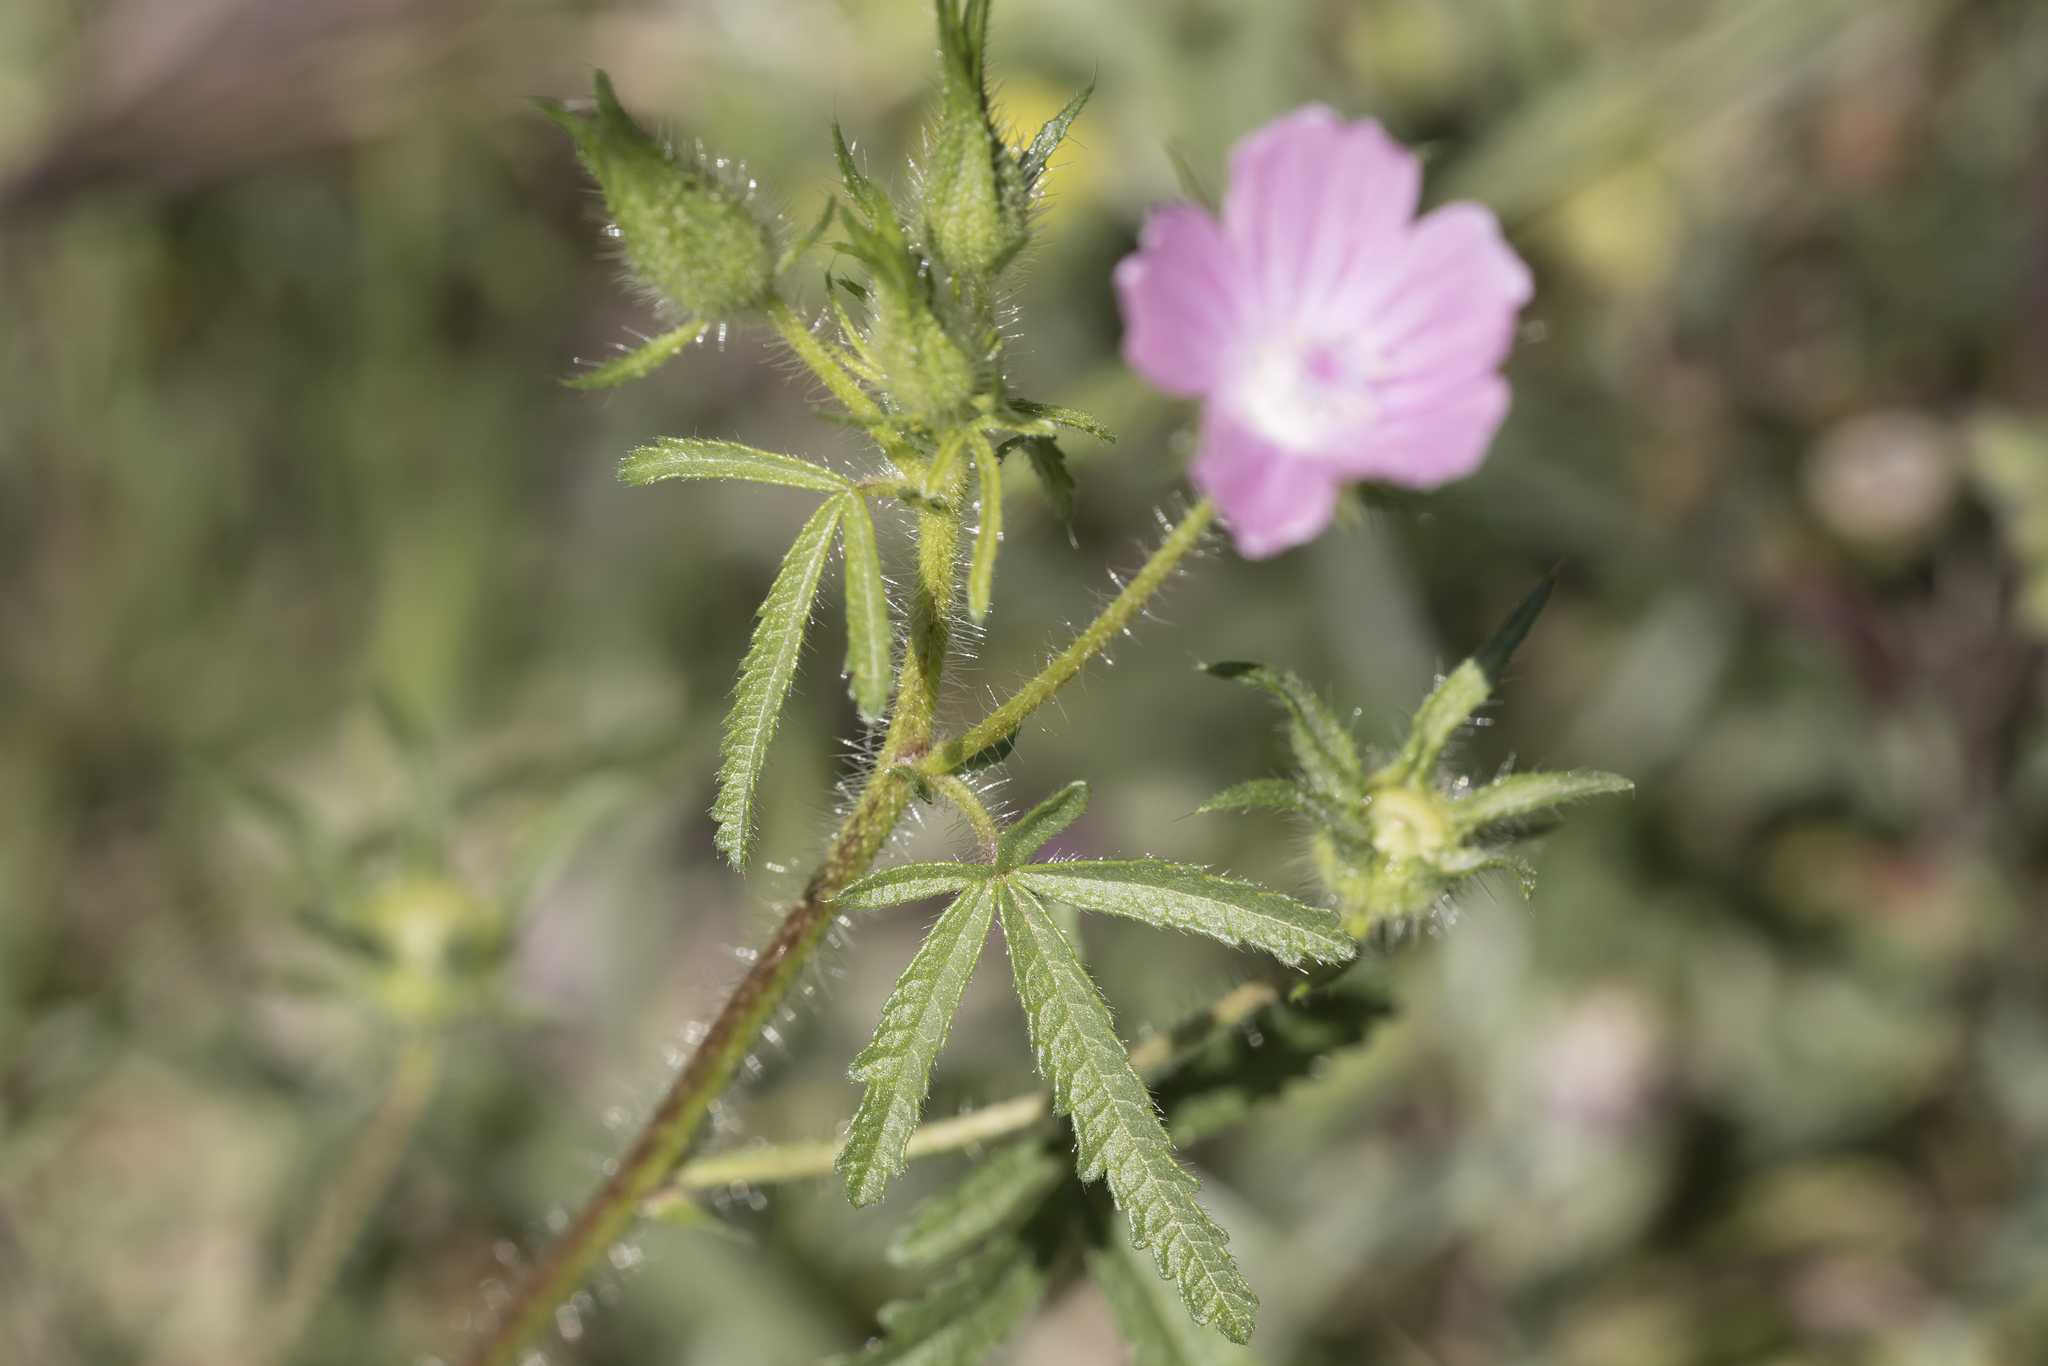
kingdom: Plantae
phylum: Tracheophyta
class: Magnoliopsida
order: Malvales
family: Malvaceae
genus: Malva
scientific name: Malva cretica
